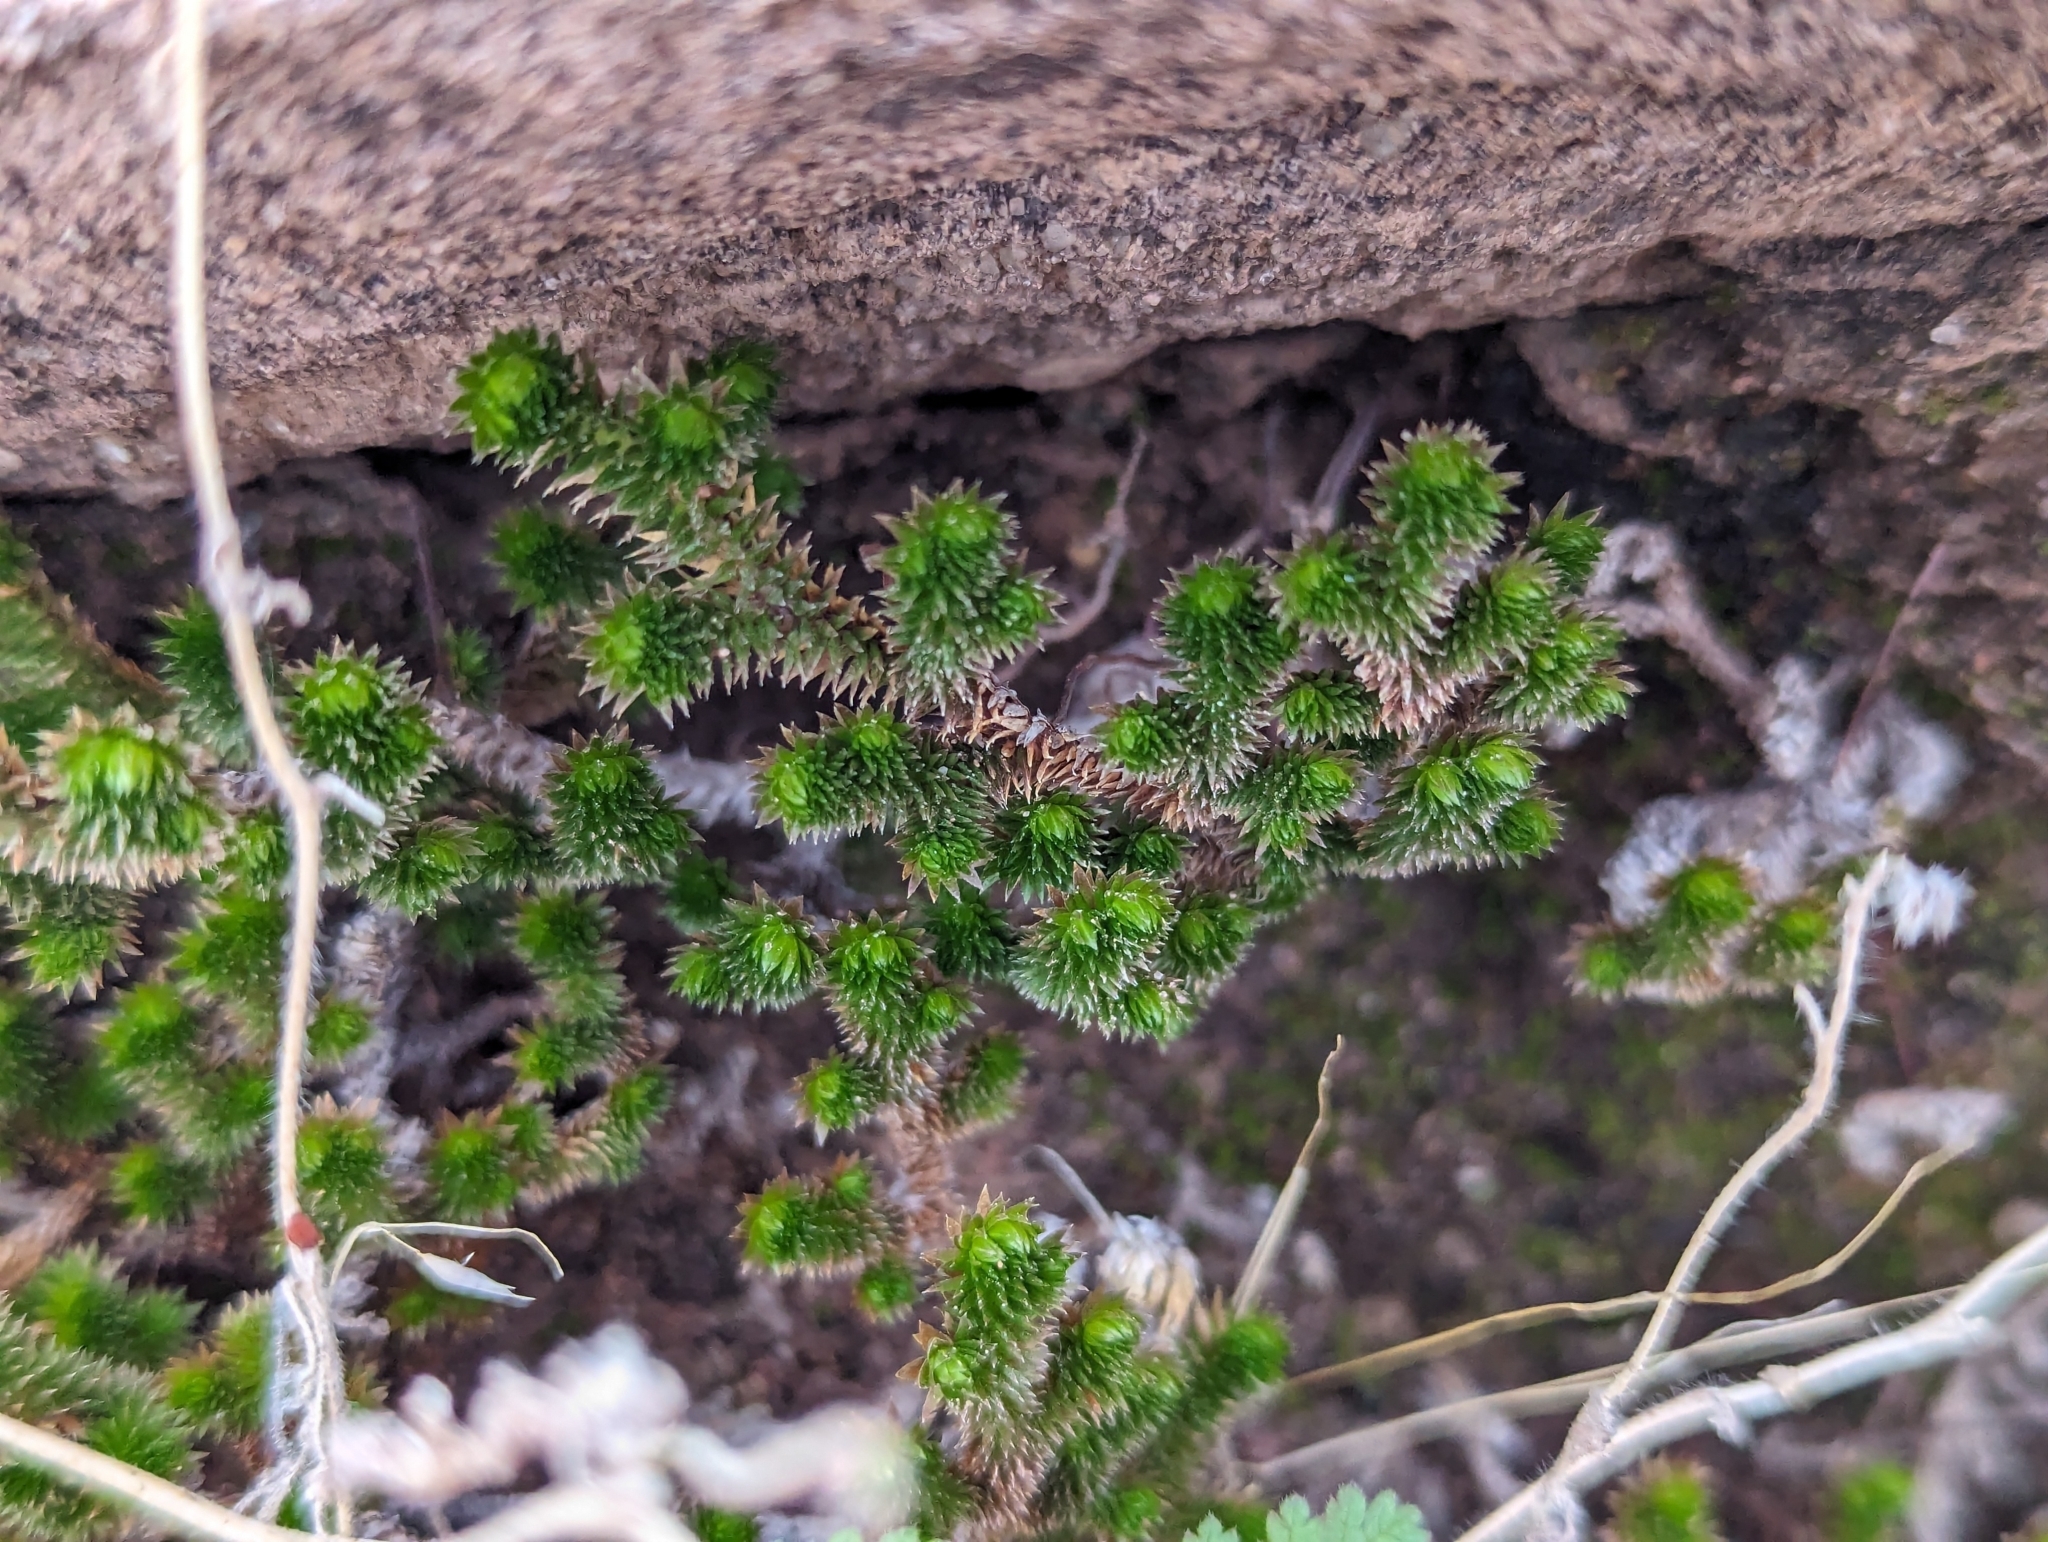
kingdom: Plantae
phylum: Tracheophyta
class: Lycopodiopsida
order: Selaginellales
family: Selaginellaceae
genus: Selaginella
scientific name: Selaginella arizonica
